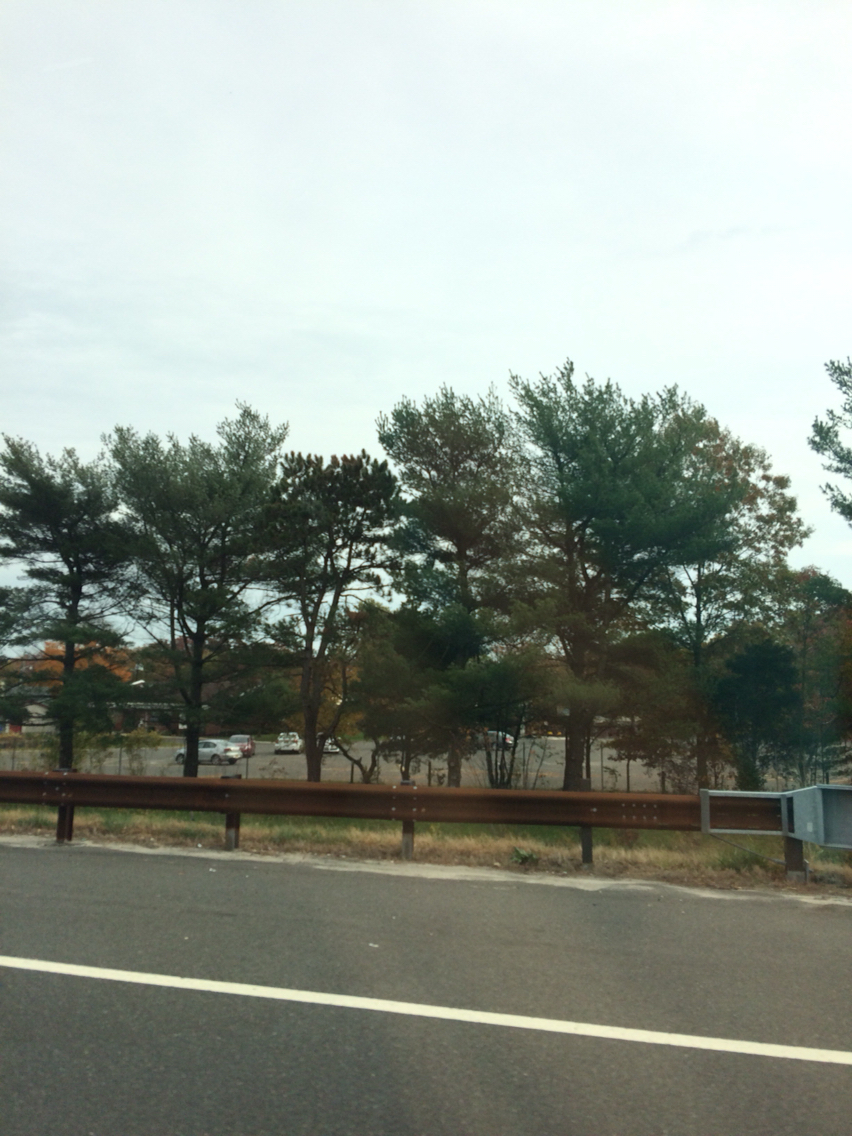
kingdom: Plantae
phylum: Tracheophyta
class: Pinopsida
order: Pinales
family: Pinaceae
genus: Pinus
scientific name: Pinus strobus
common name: Weymouth pine
